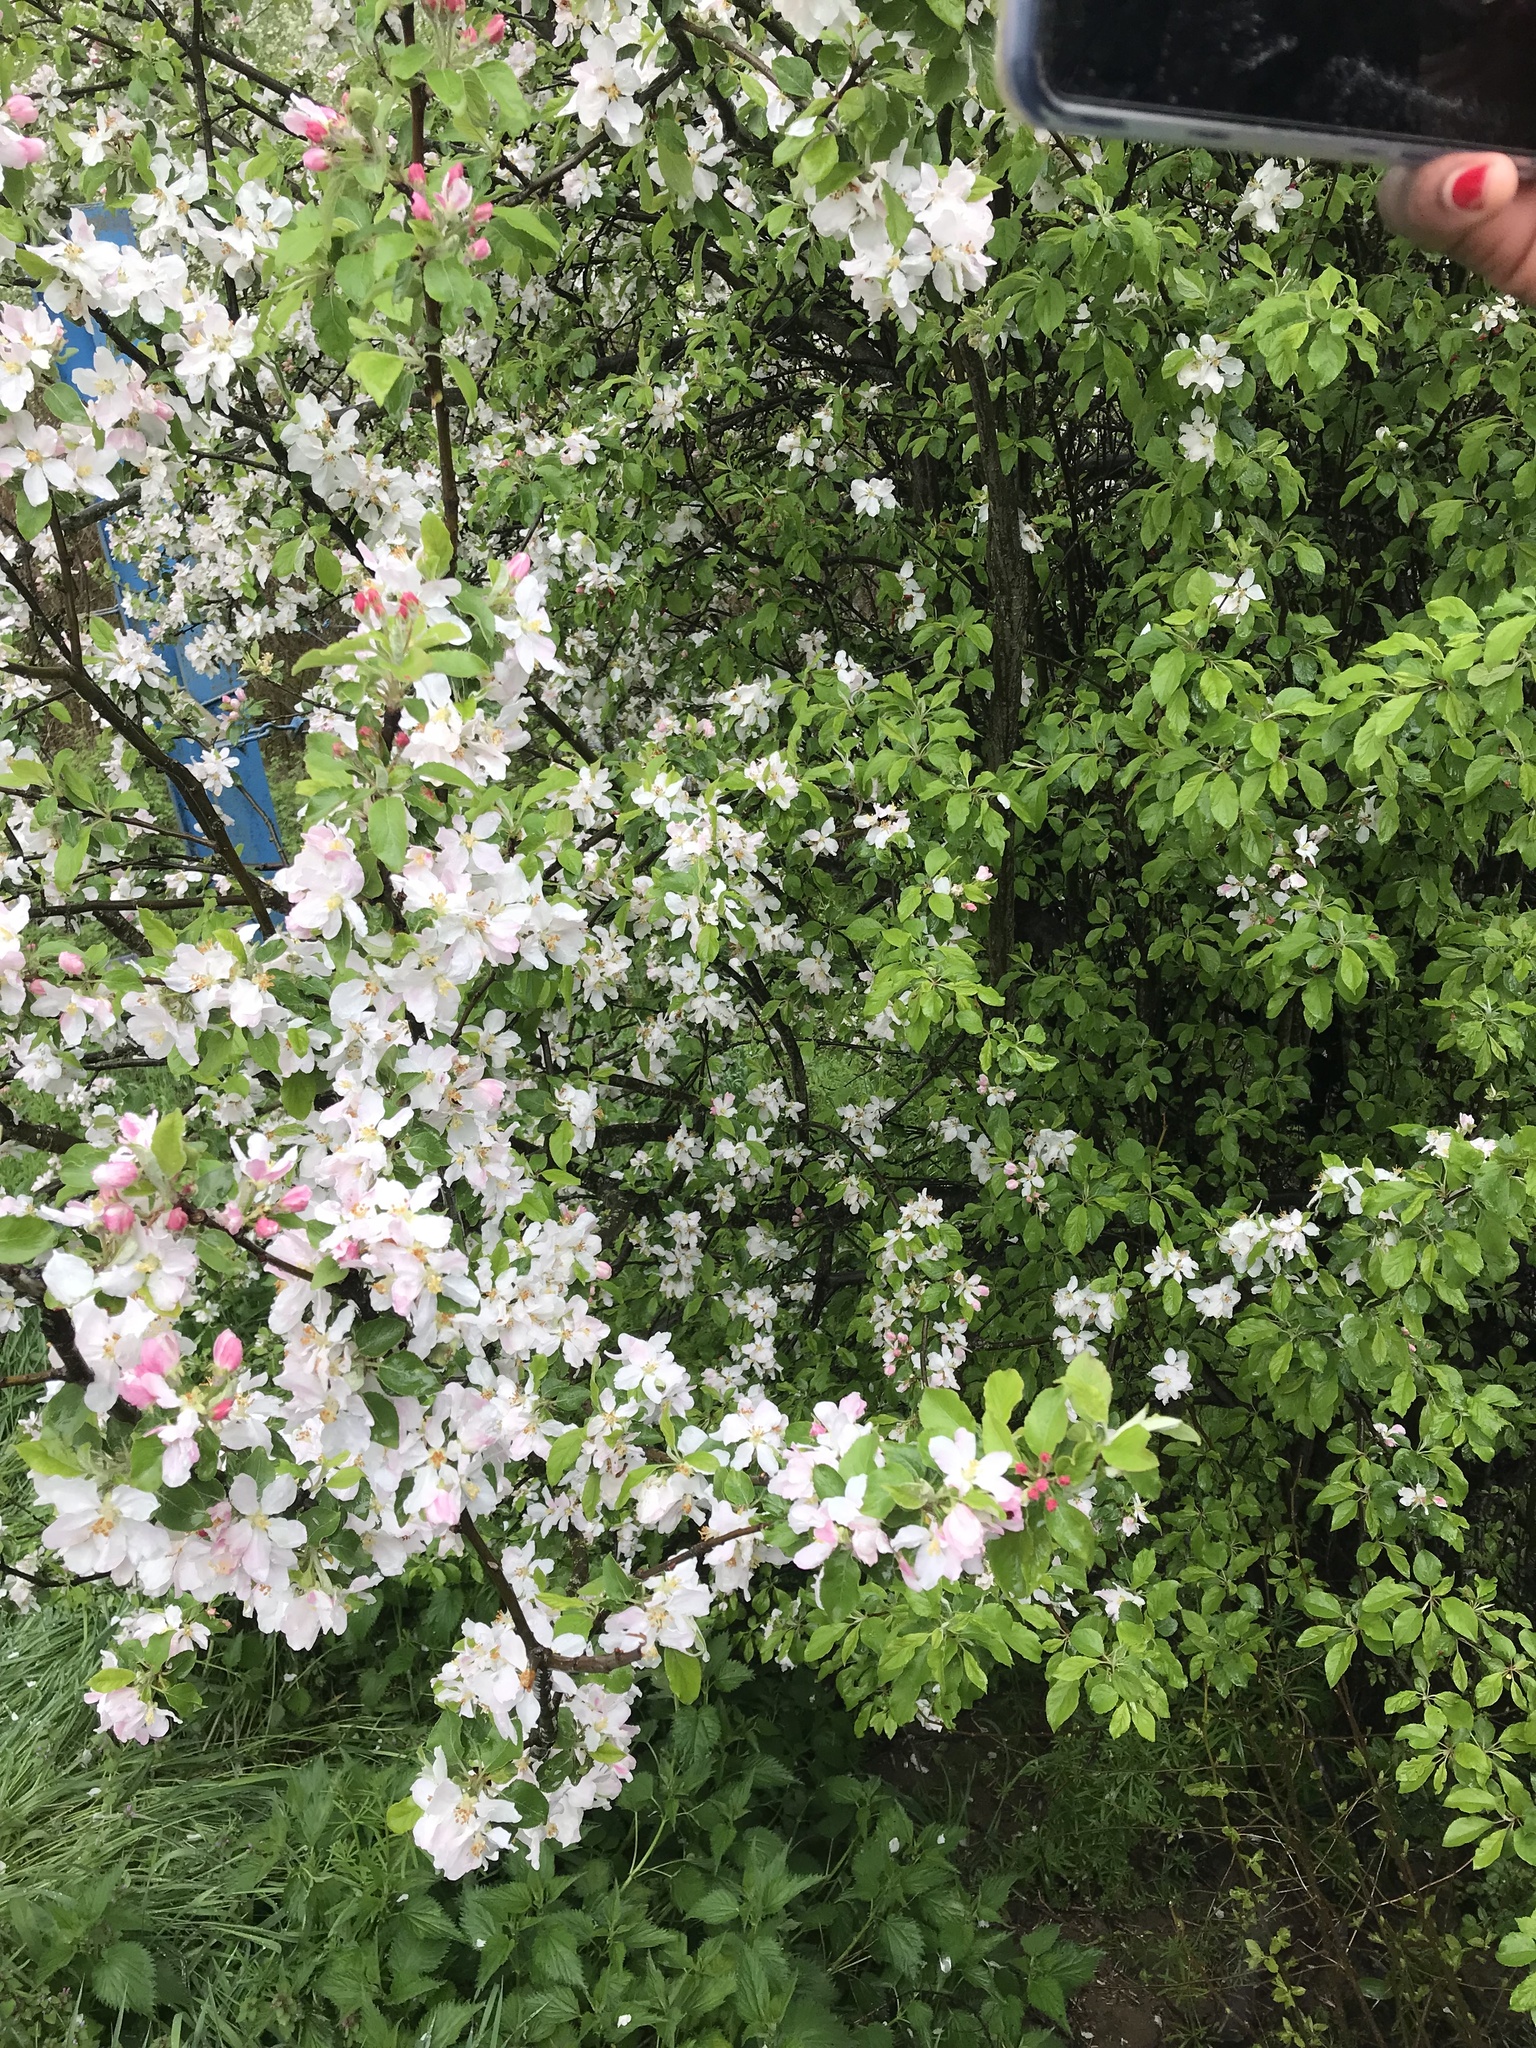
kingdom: Plantae
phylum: Tracheophyta
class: Magnoliopsida
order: Rosales
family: Rosaceae
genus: Malus
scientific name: Malus domestica
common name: Apple
